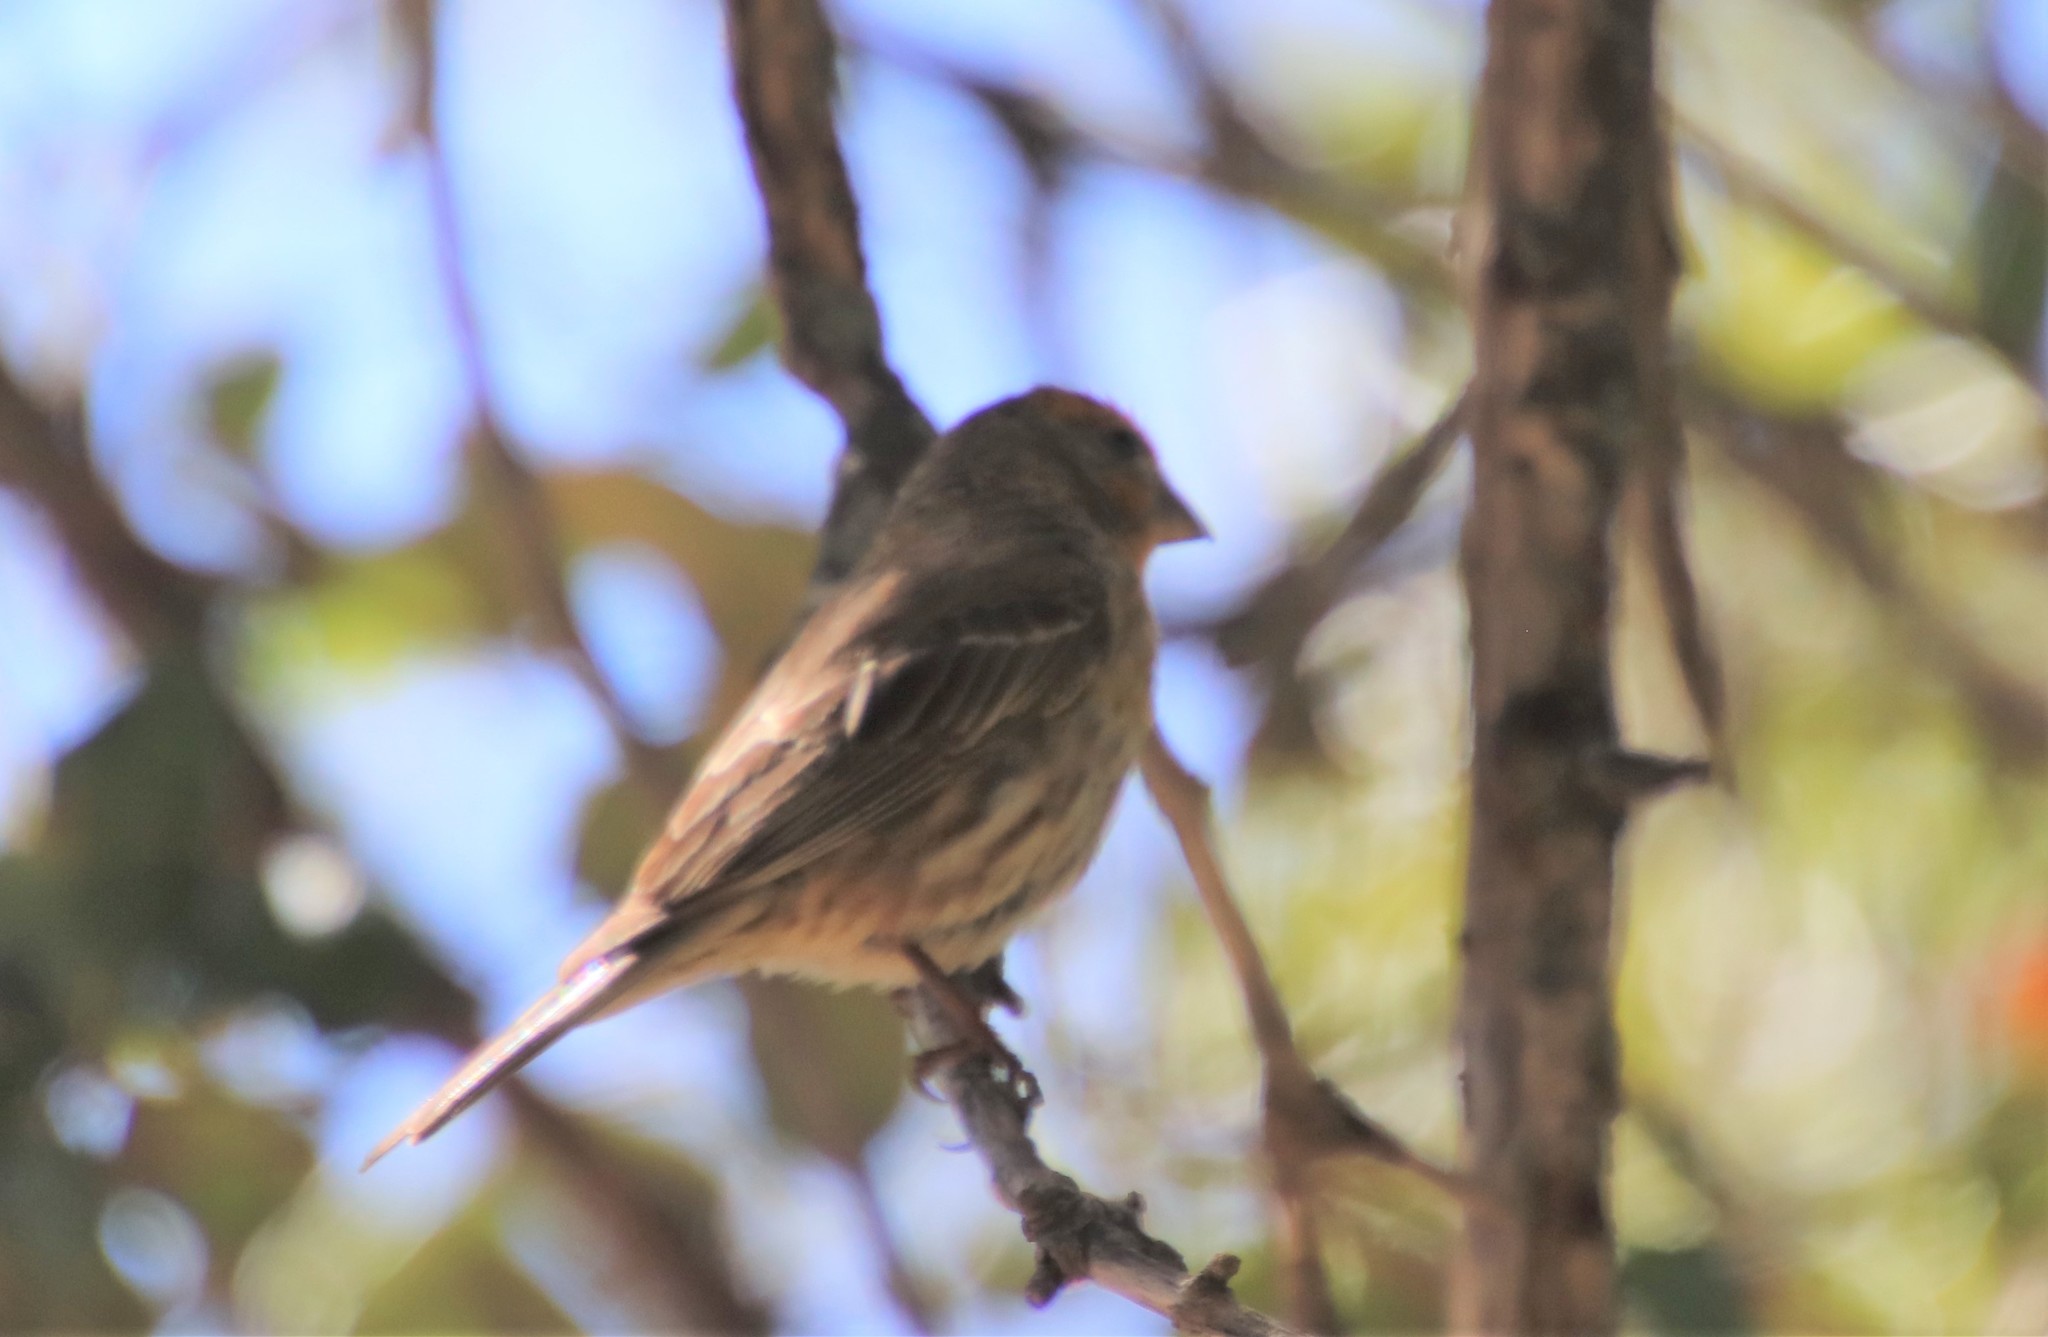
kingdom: Animalia
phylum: Chordata
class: Aves
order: Passeriformes
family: Fringillidae
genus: Haemorhous
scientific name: Haemorhous mexicanus
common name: House finch
